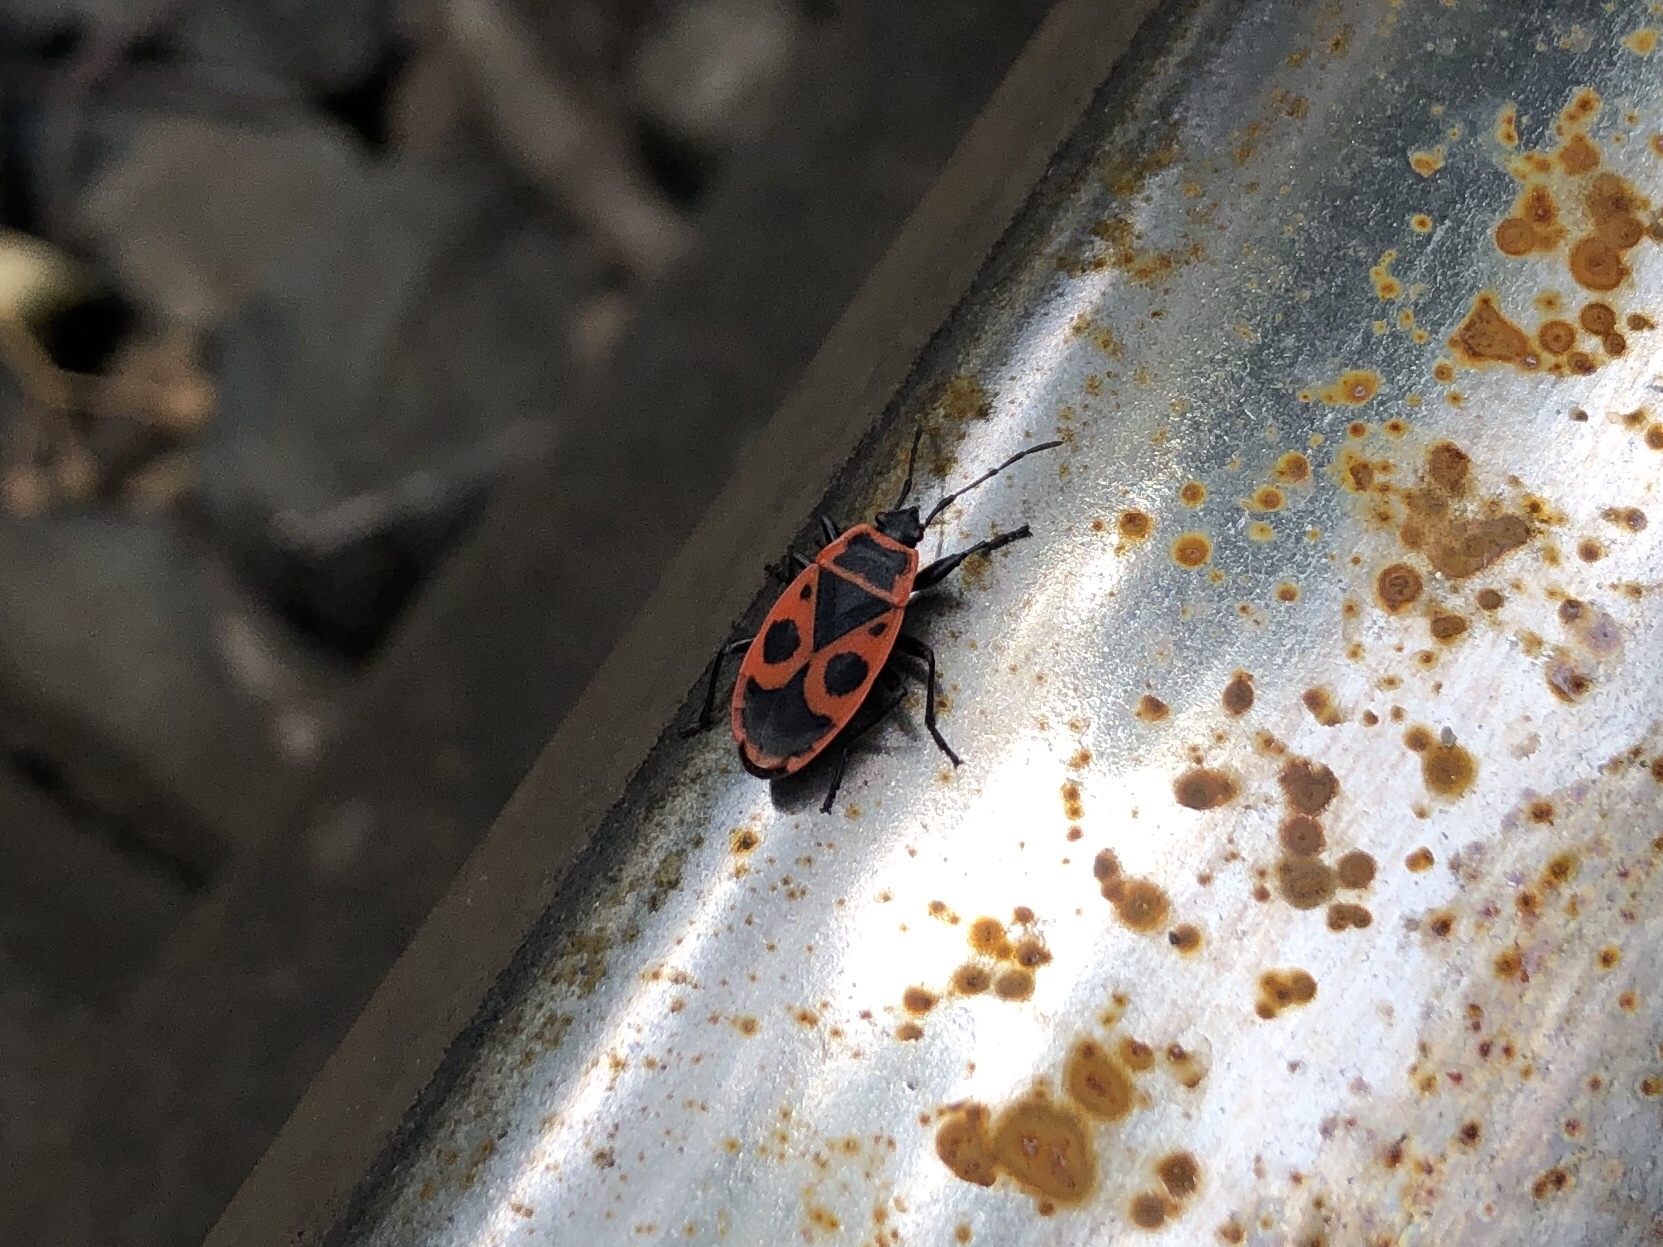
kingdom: Animalia
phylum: Arthropoda
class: Insecta
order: Hemiptera
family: Pyrrhocoridae
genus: Pyrrhocoris
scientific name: Pyrrhocoris apterus
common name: Firebug
